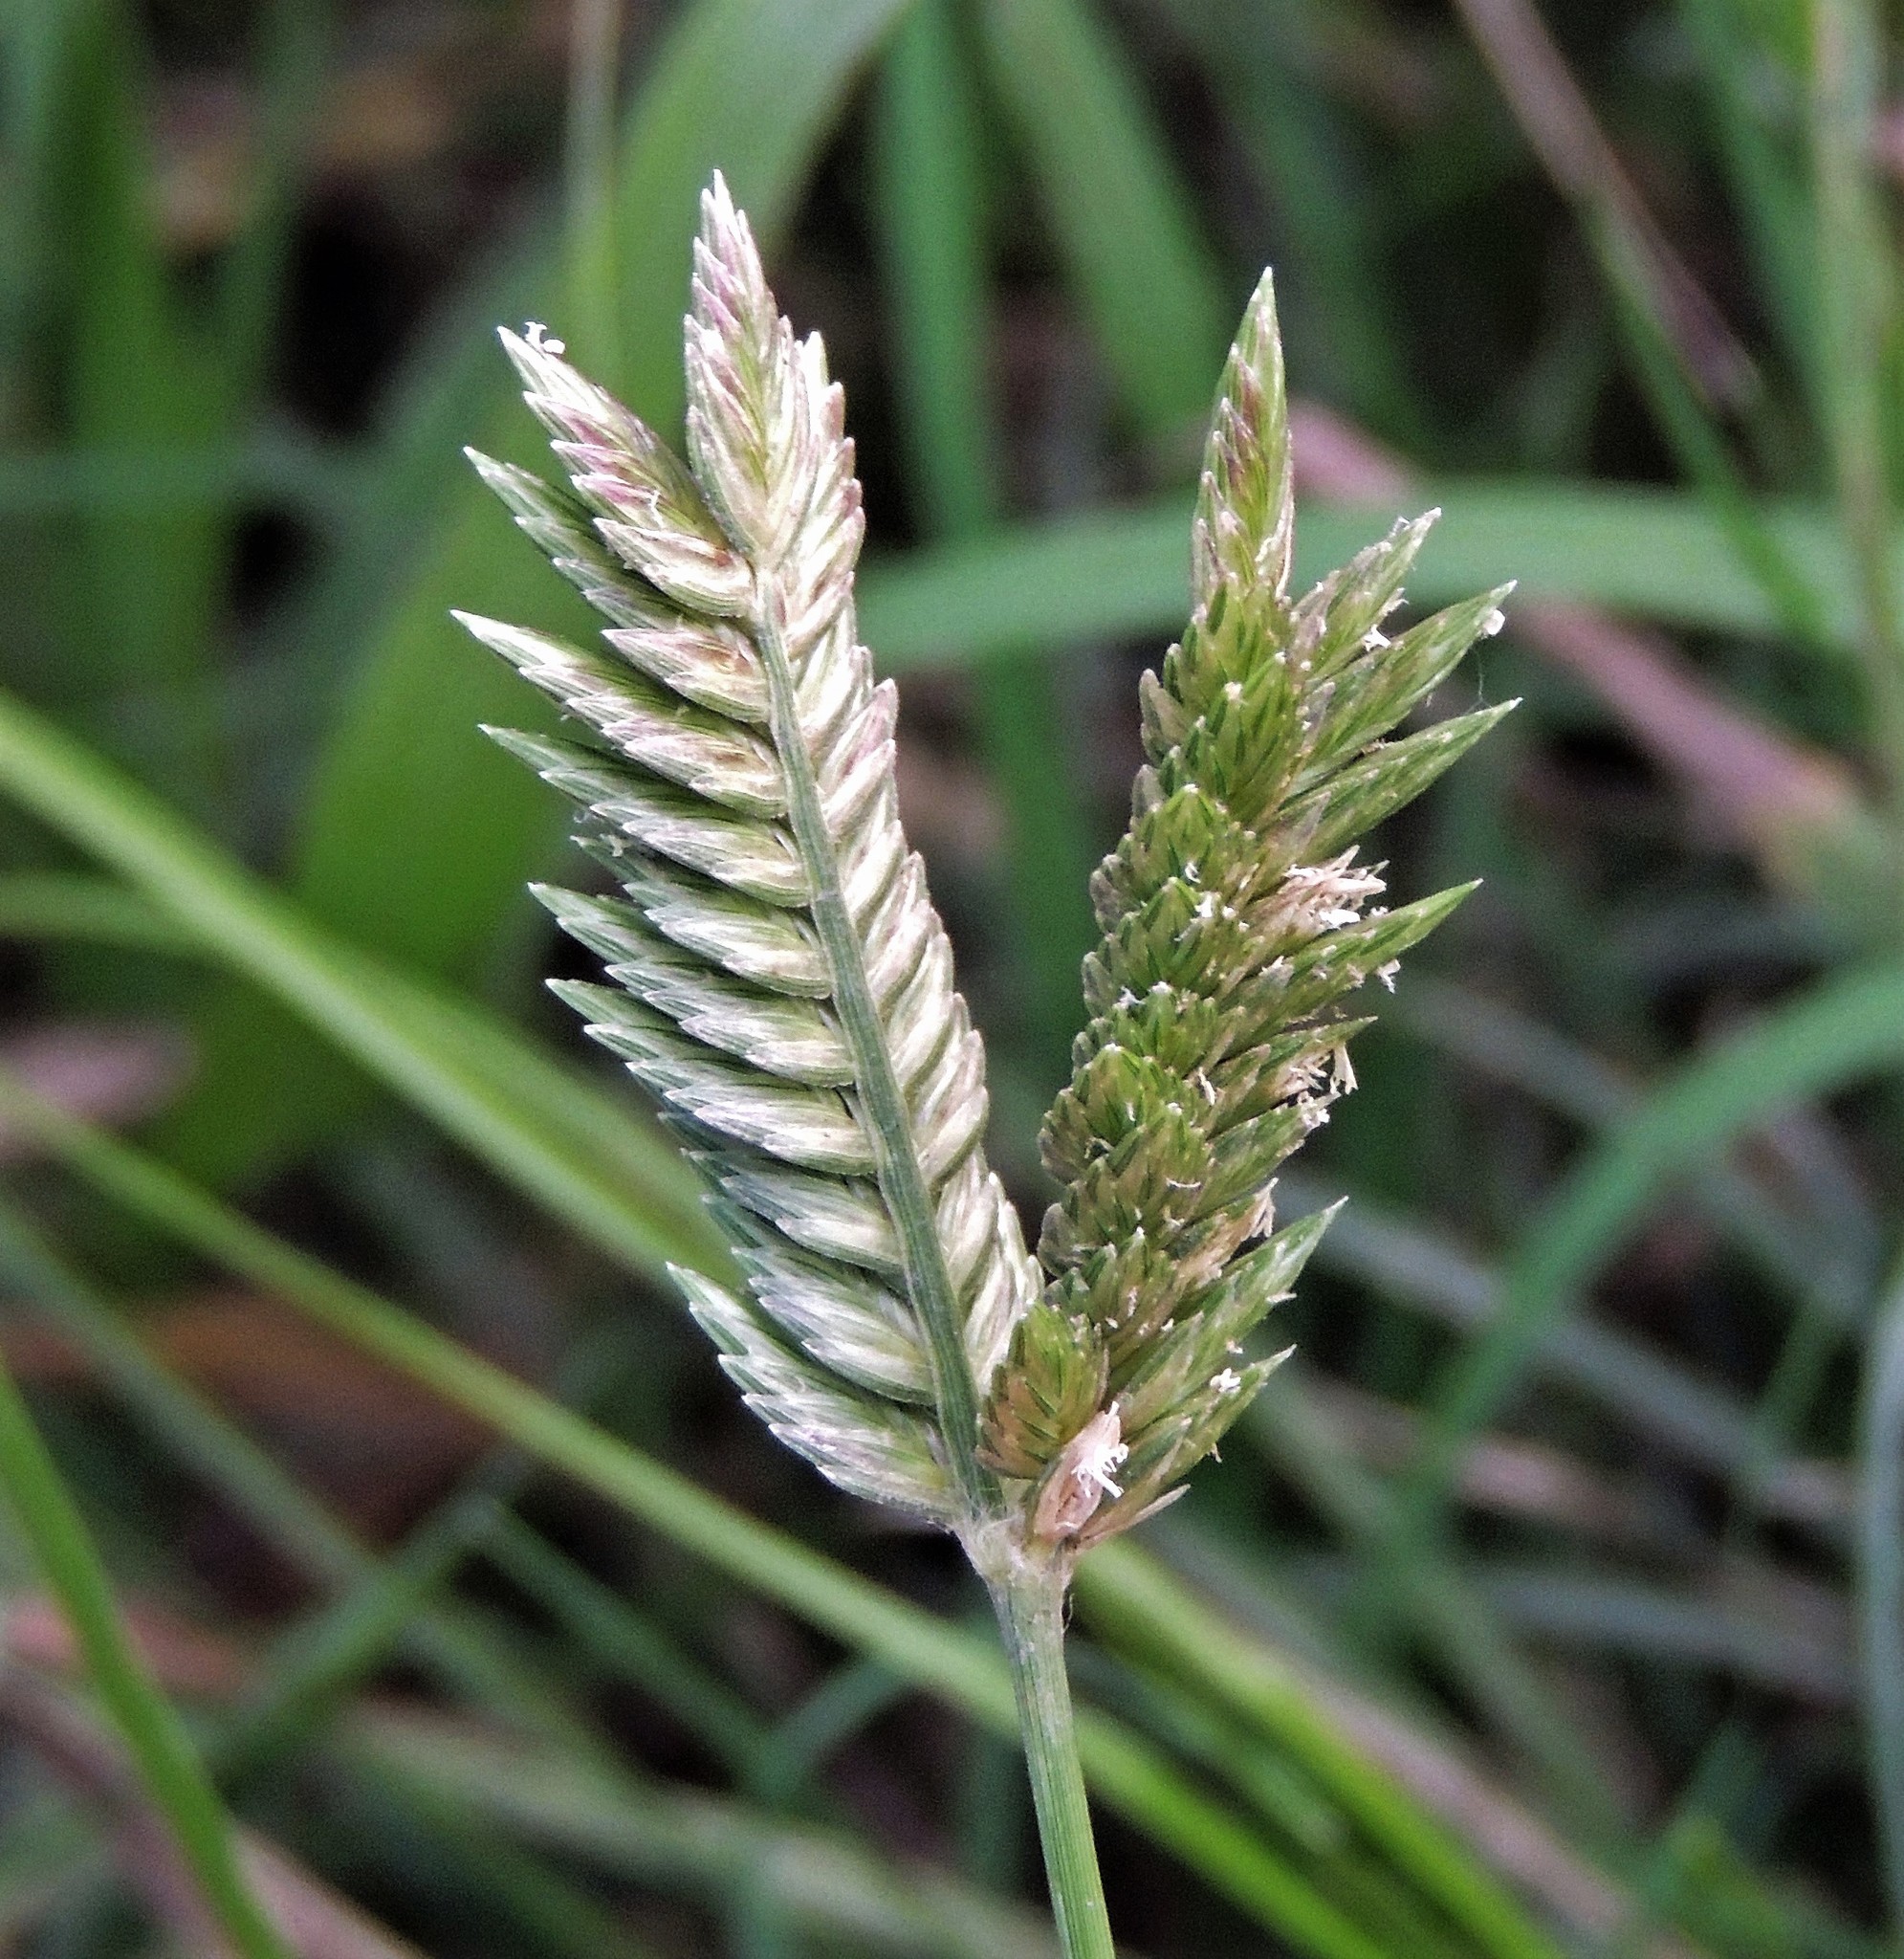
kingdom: Plantae
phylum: Tracheophyta
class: Liliopsida
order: Poales
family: Poaceae
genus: Eleusine
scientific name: Eleusine tristachya
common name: American yard-grass
